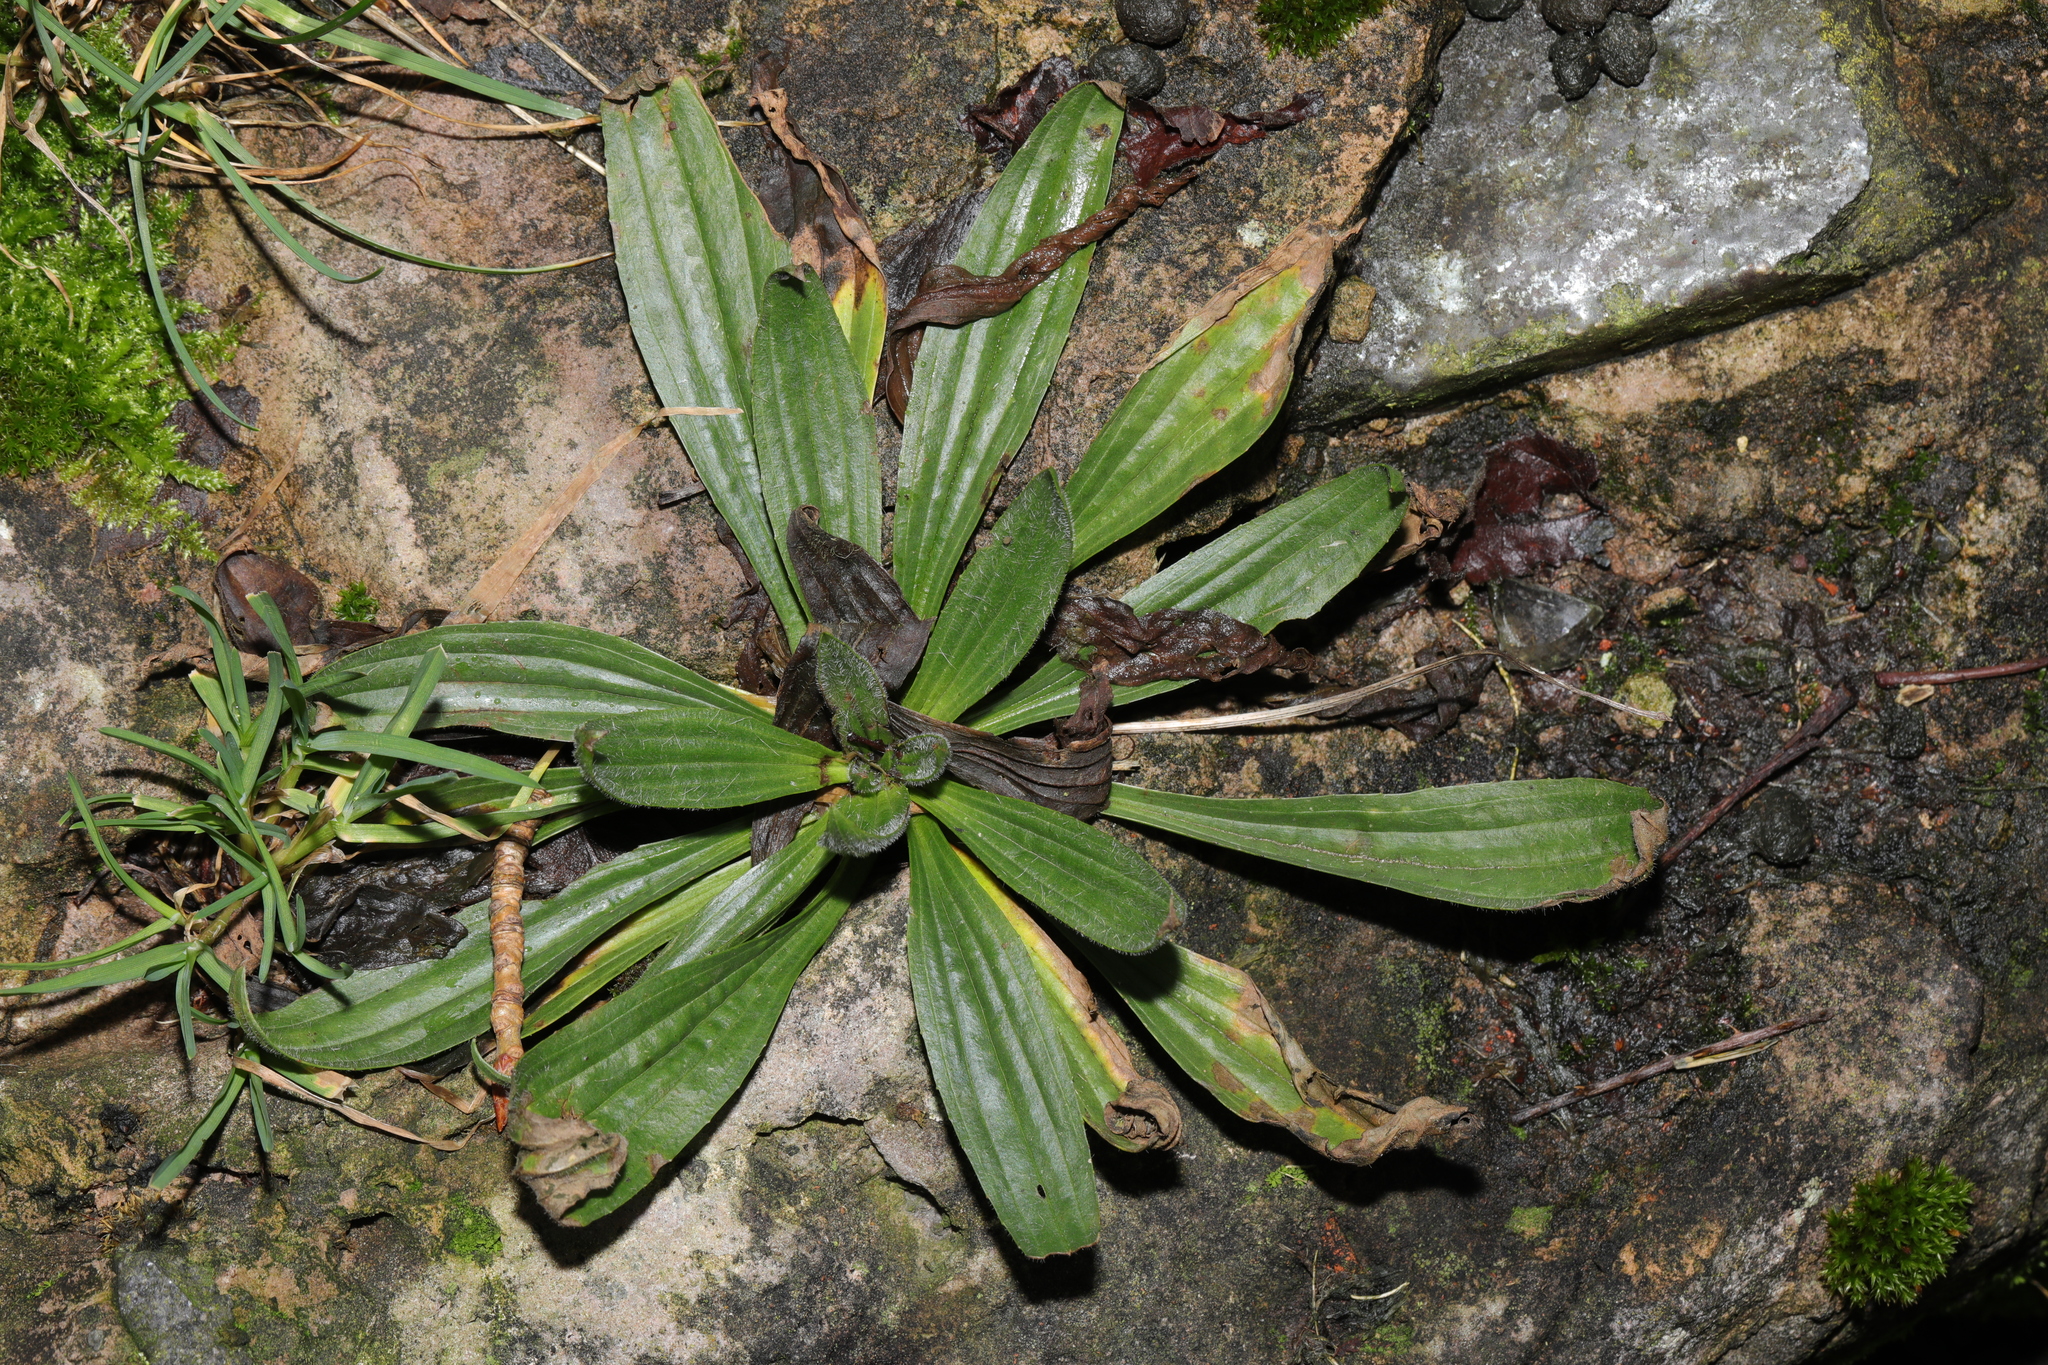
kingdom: Plantae
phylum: Tracheophyta
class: Magnoliopsida
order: Lamiales
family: Plantaginaceae
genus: Plantago
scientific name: Plantago lanceolata
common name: Ribwort plantain
